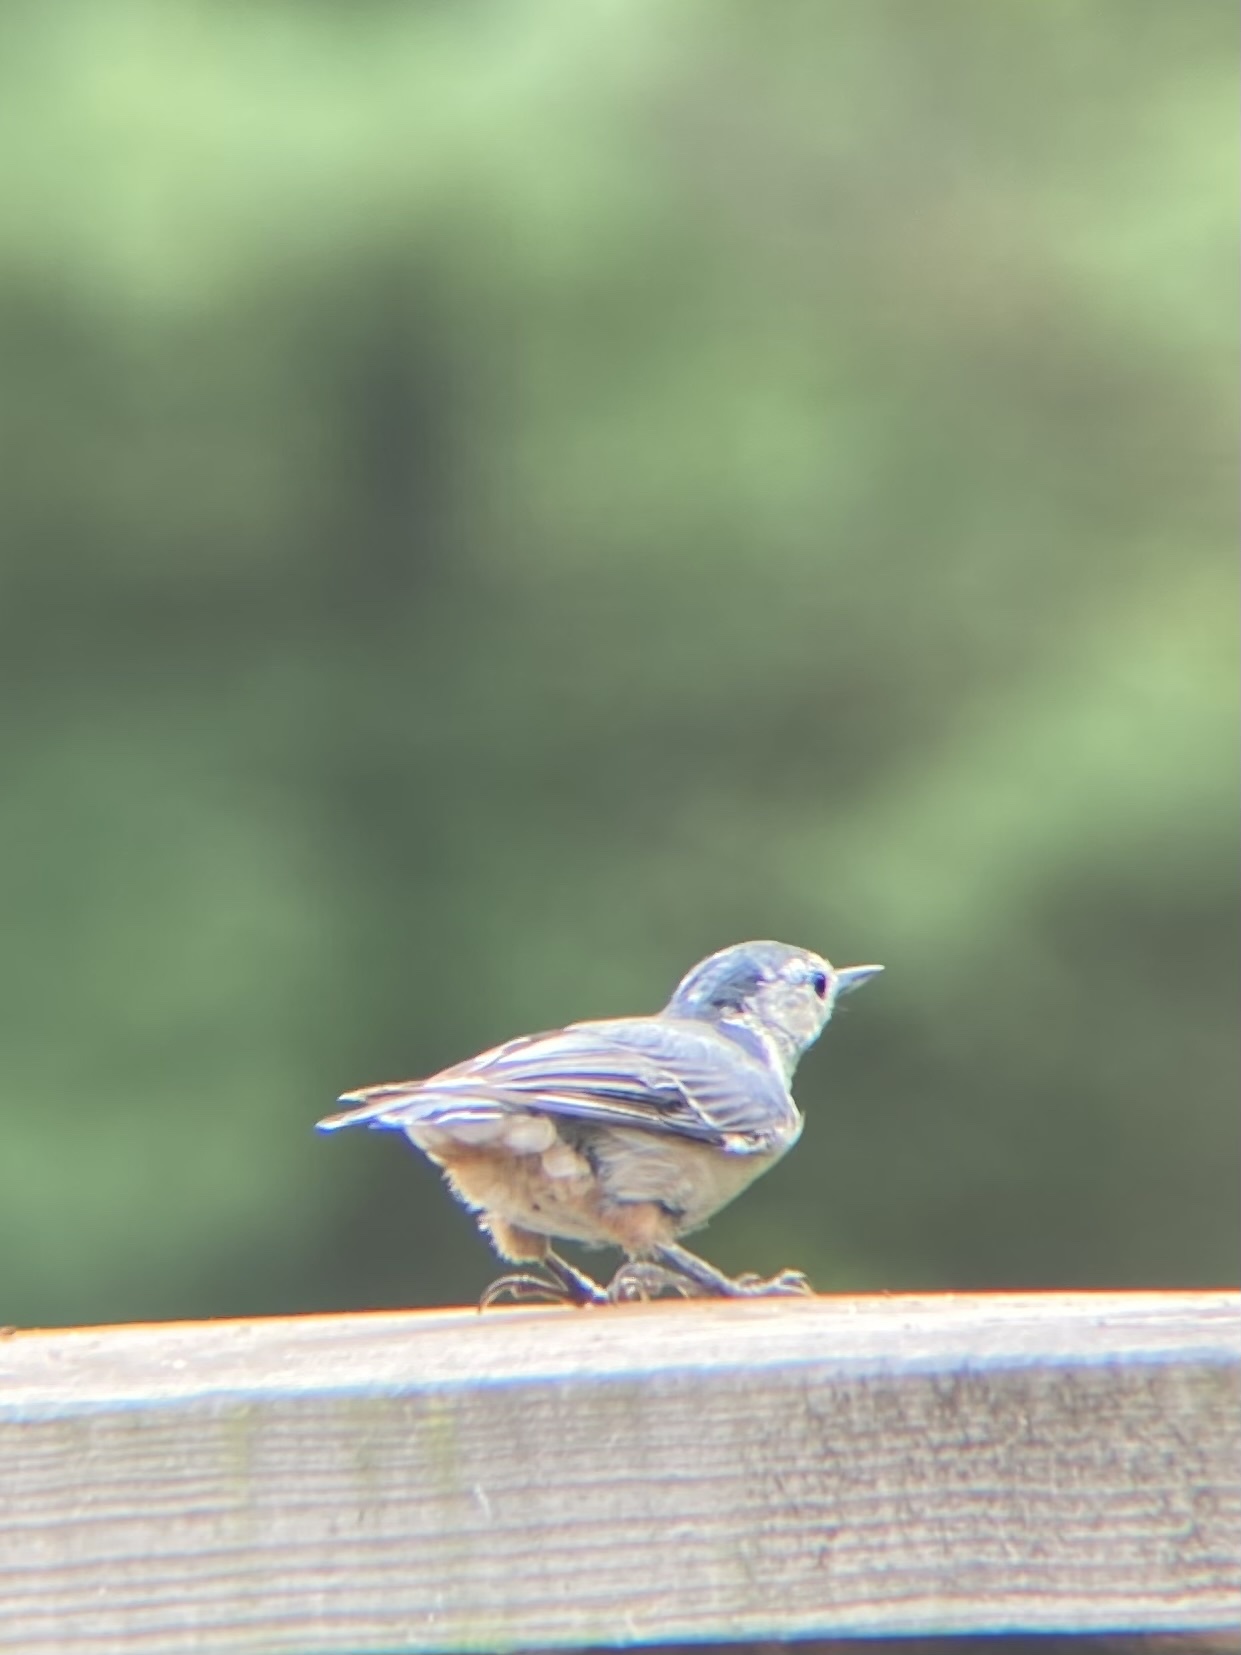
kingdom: Animalia
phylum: Chordata
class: Aves
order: Passeriformes
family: Sittidae
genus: Sitta
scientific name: Sitta carolinensis
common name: White-breasted nuthatch
